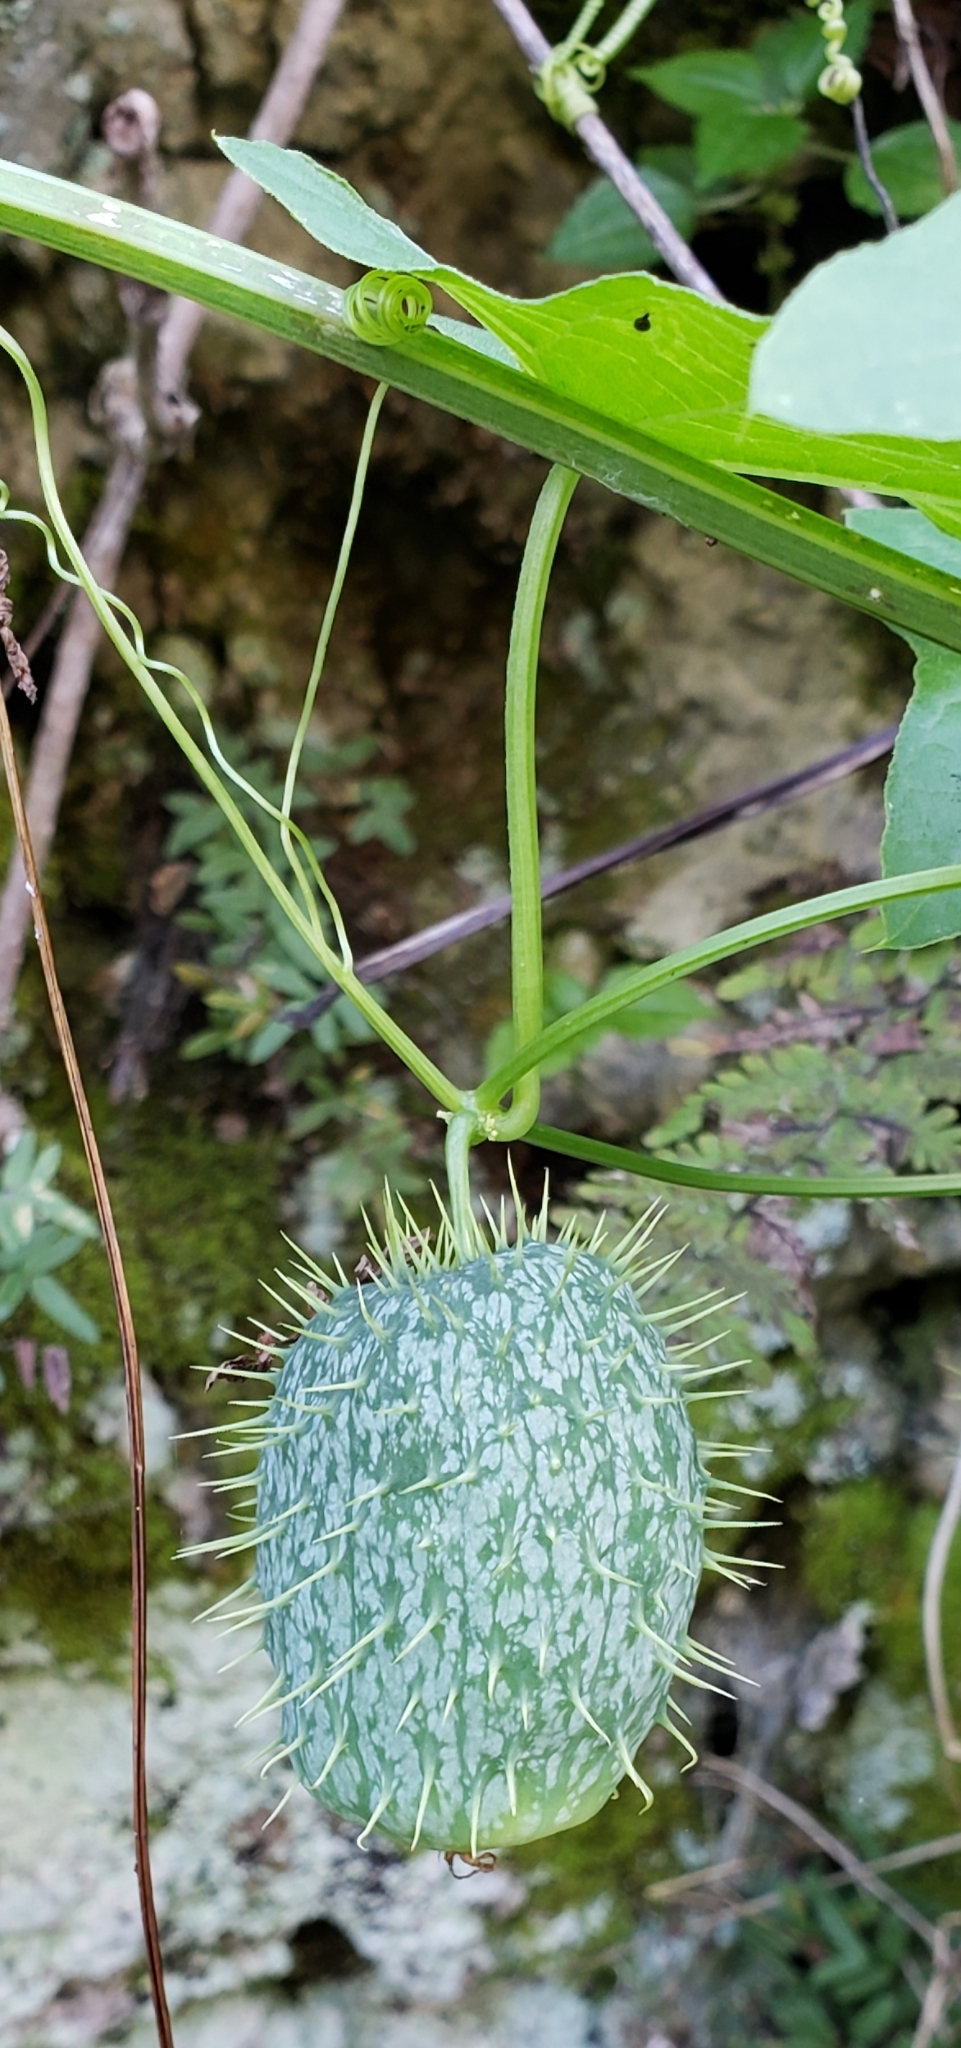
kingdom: Plantae
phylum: Tracheophyta
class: Magnoliopsida
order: Cucurbitales
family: Cucurbitaceae
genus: Echinocystis
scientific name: Echinocystis lobata
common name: Wild cucumber
